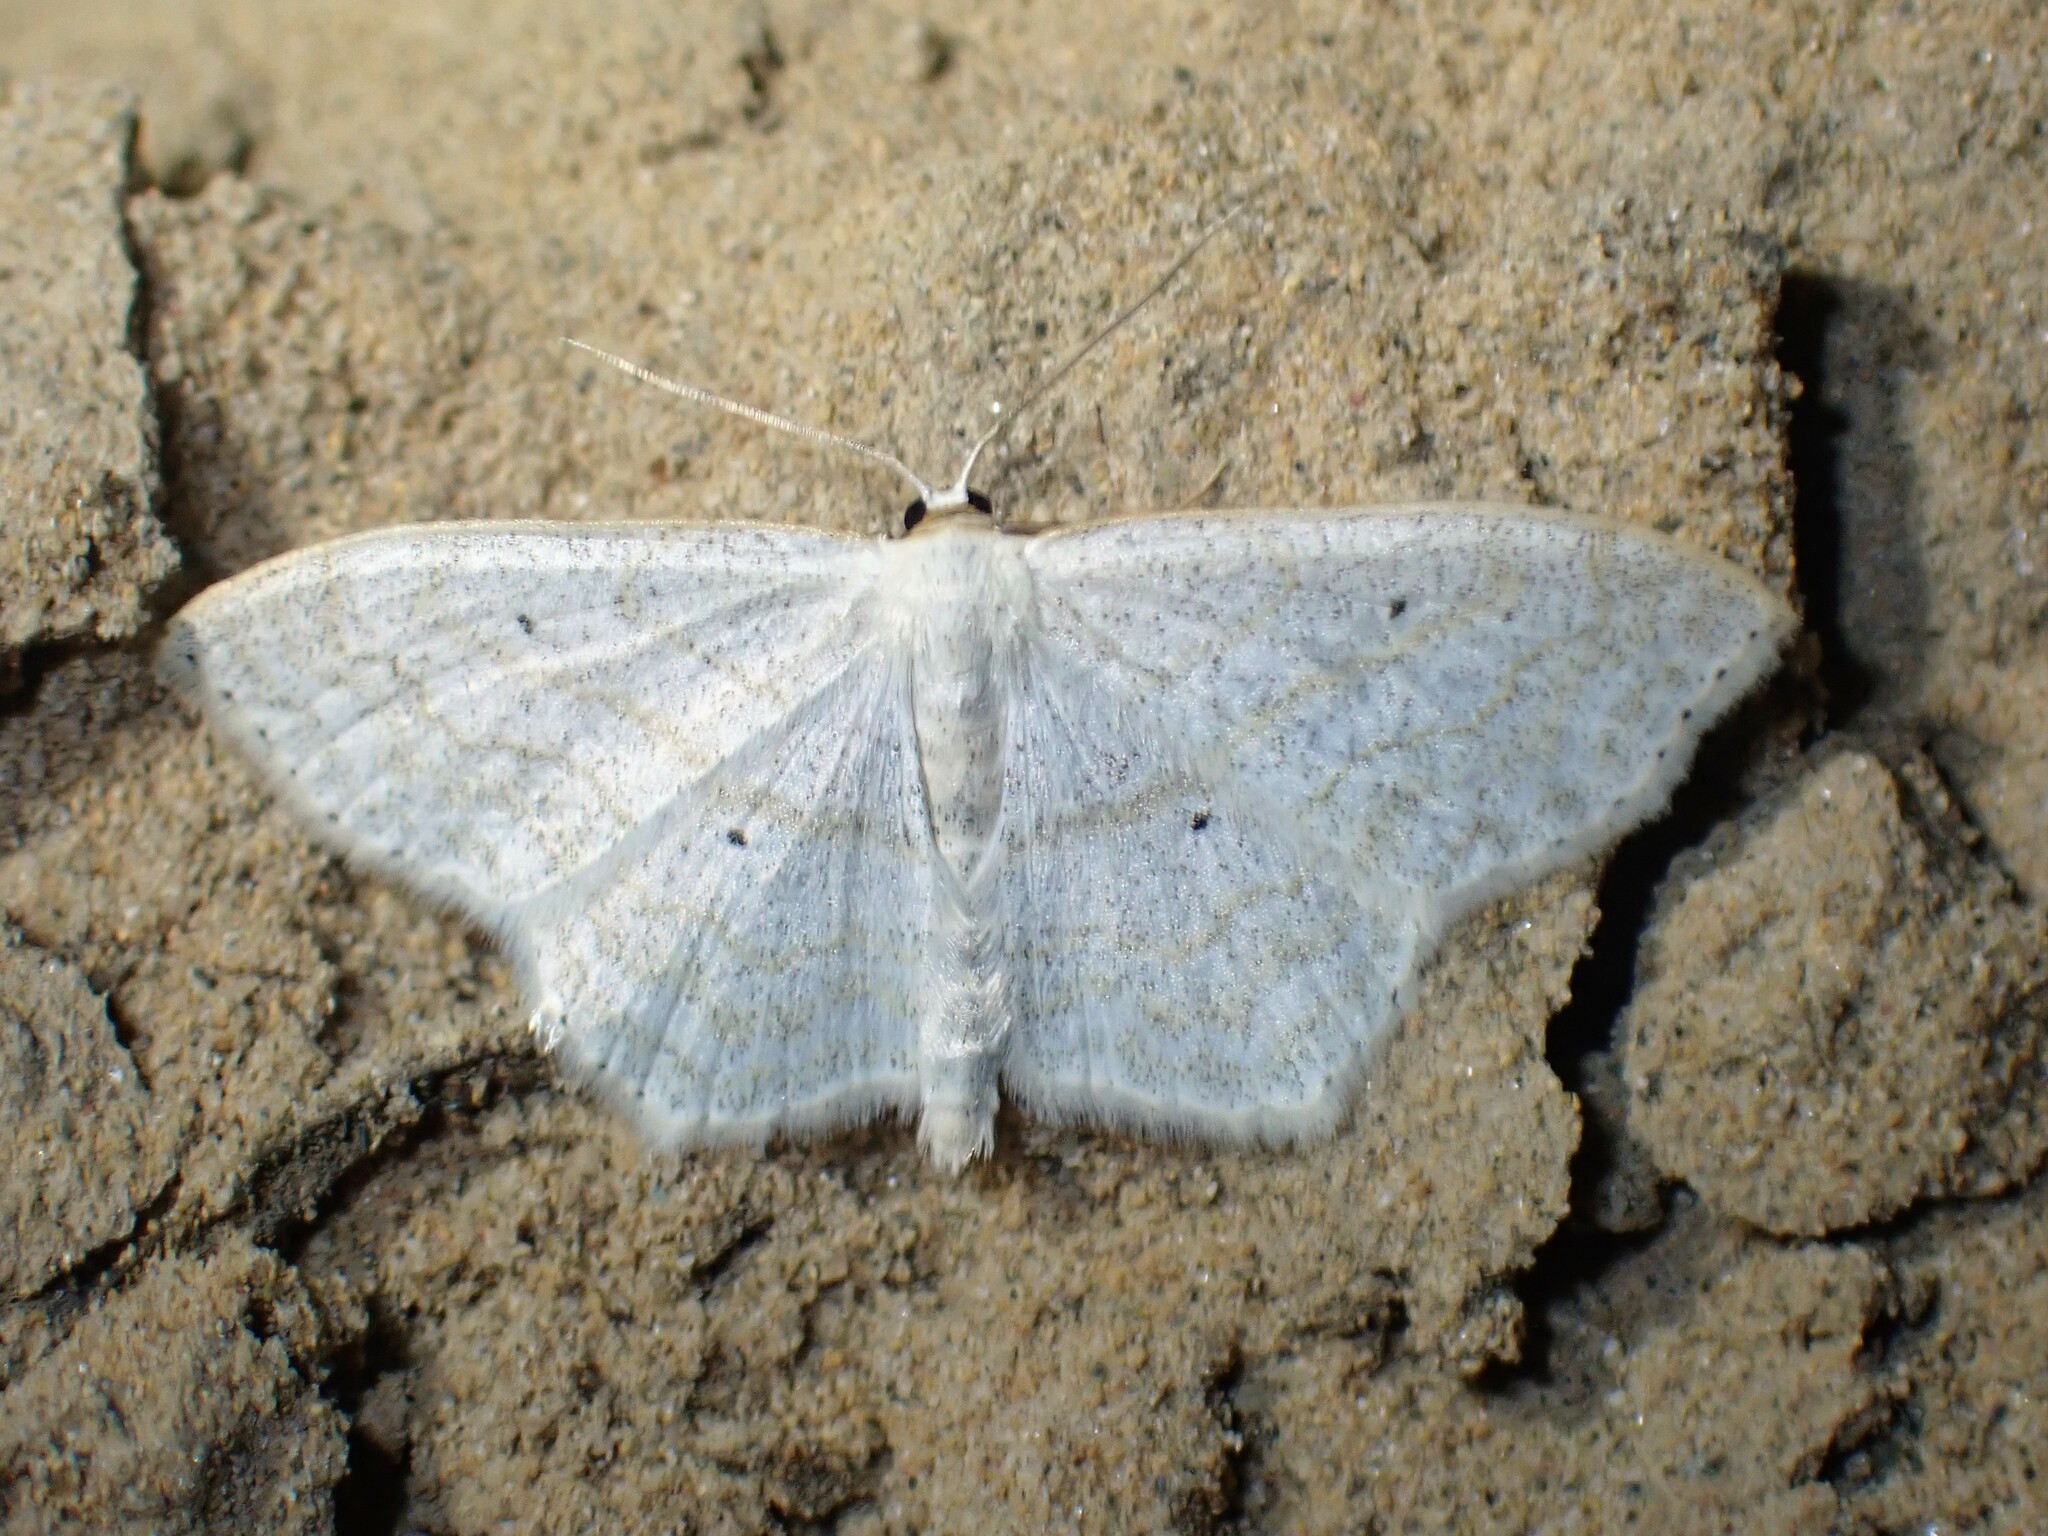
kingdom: Animalia
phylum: Arthropoda
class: Insecta
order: Lepidoptera
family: Geometridae
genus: Scopula
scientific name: Scopula limboundata
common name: Large lace border
